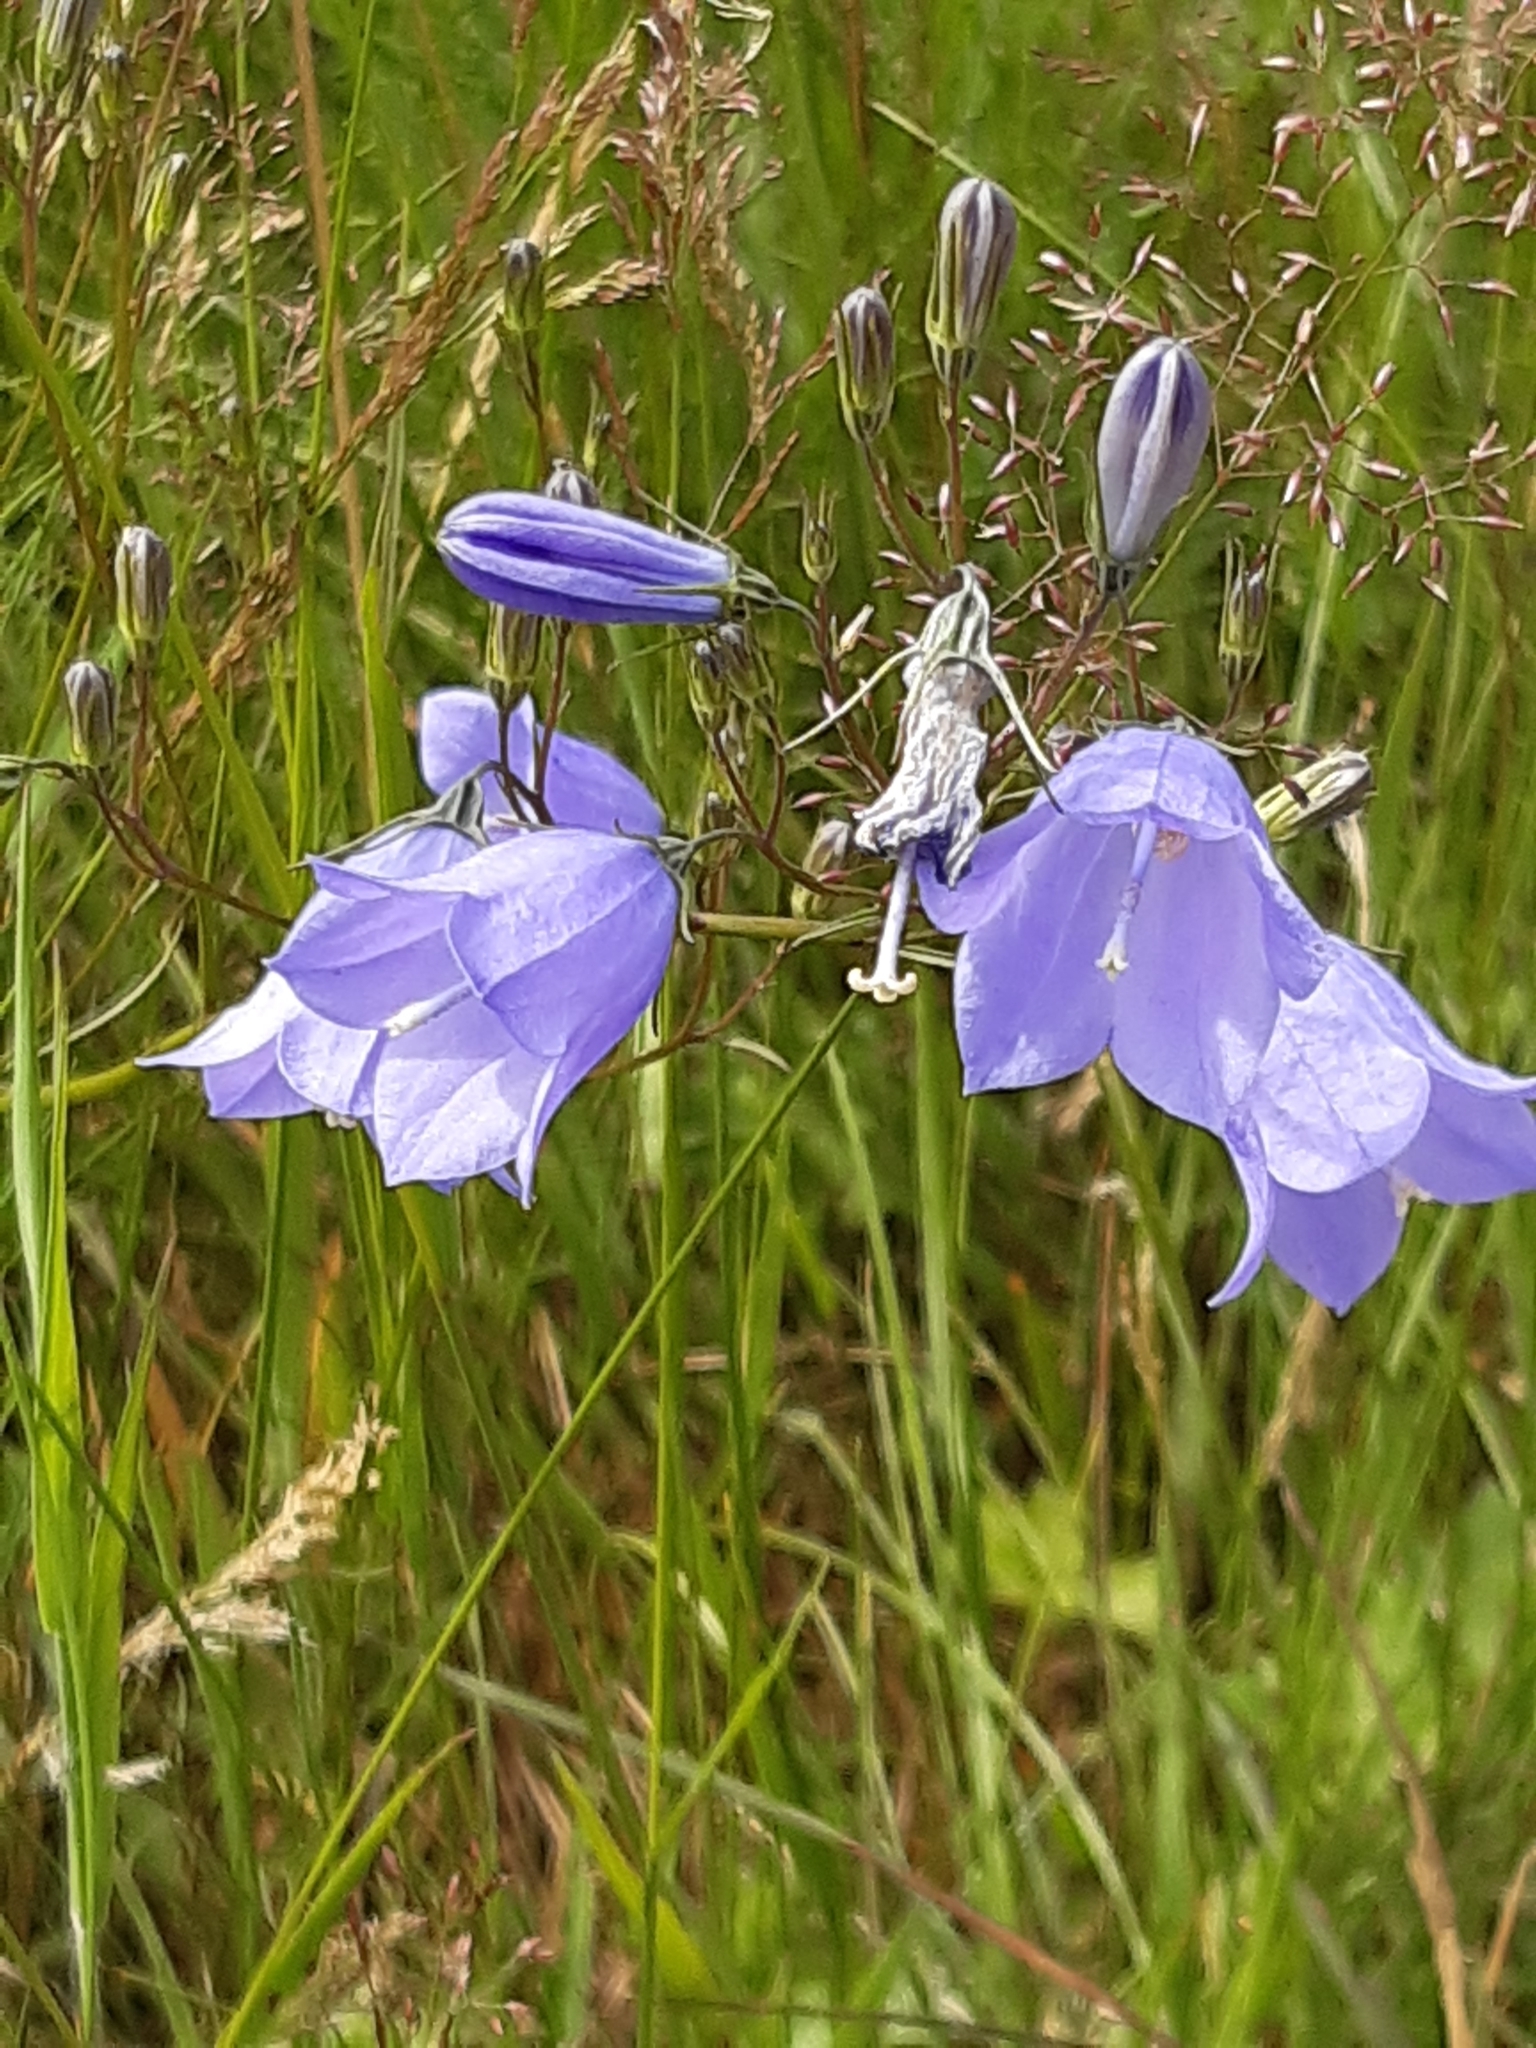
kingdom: Plantae
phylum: Tracheophyta
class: Magnoliopsida
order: Asterales
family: Campanulaceae
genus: Campanula
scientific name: Campanula rotundifolia
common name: Harebell
